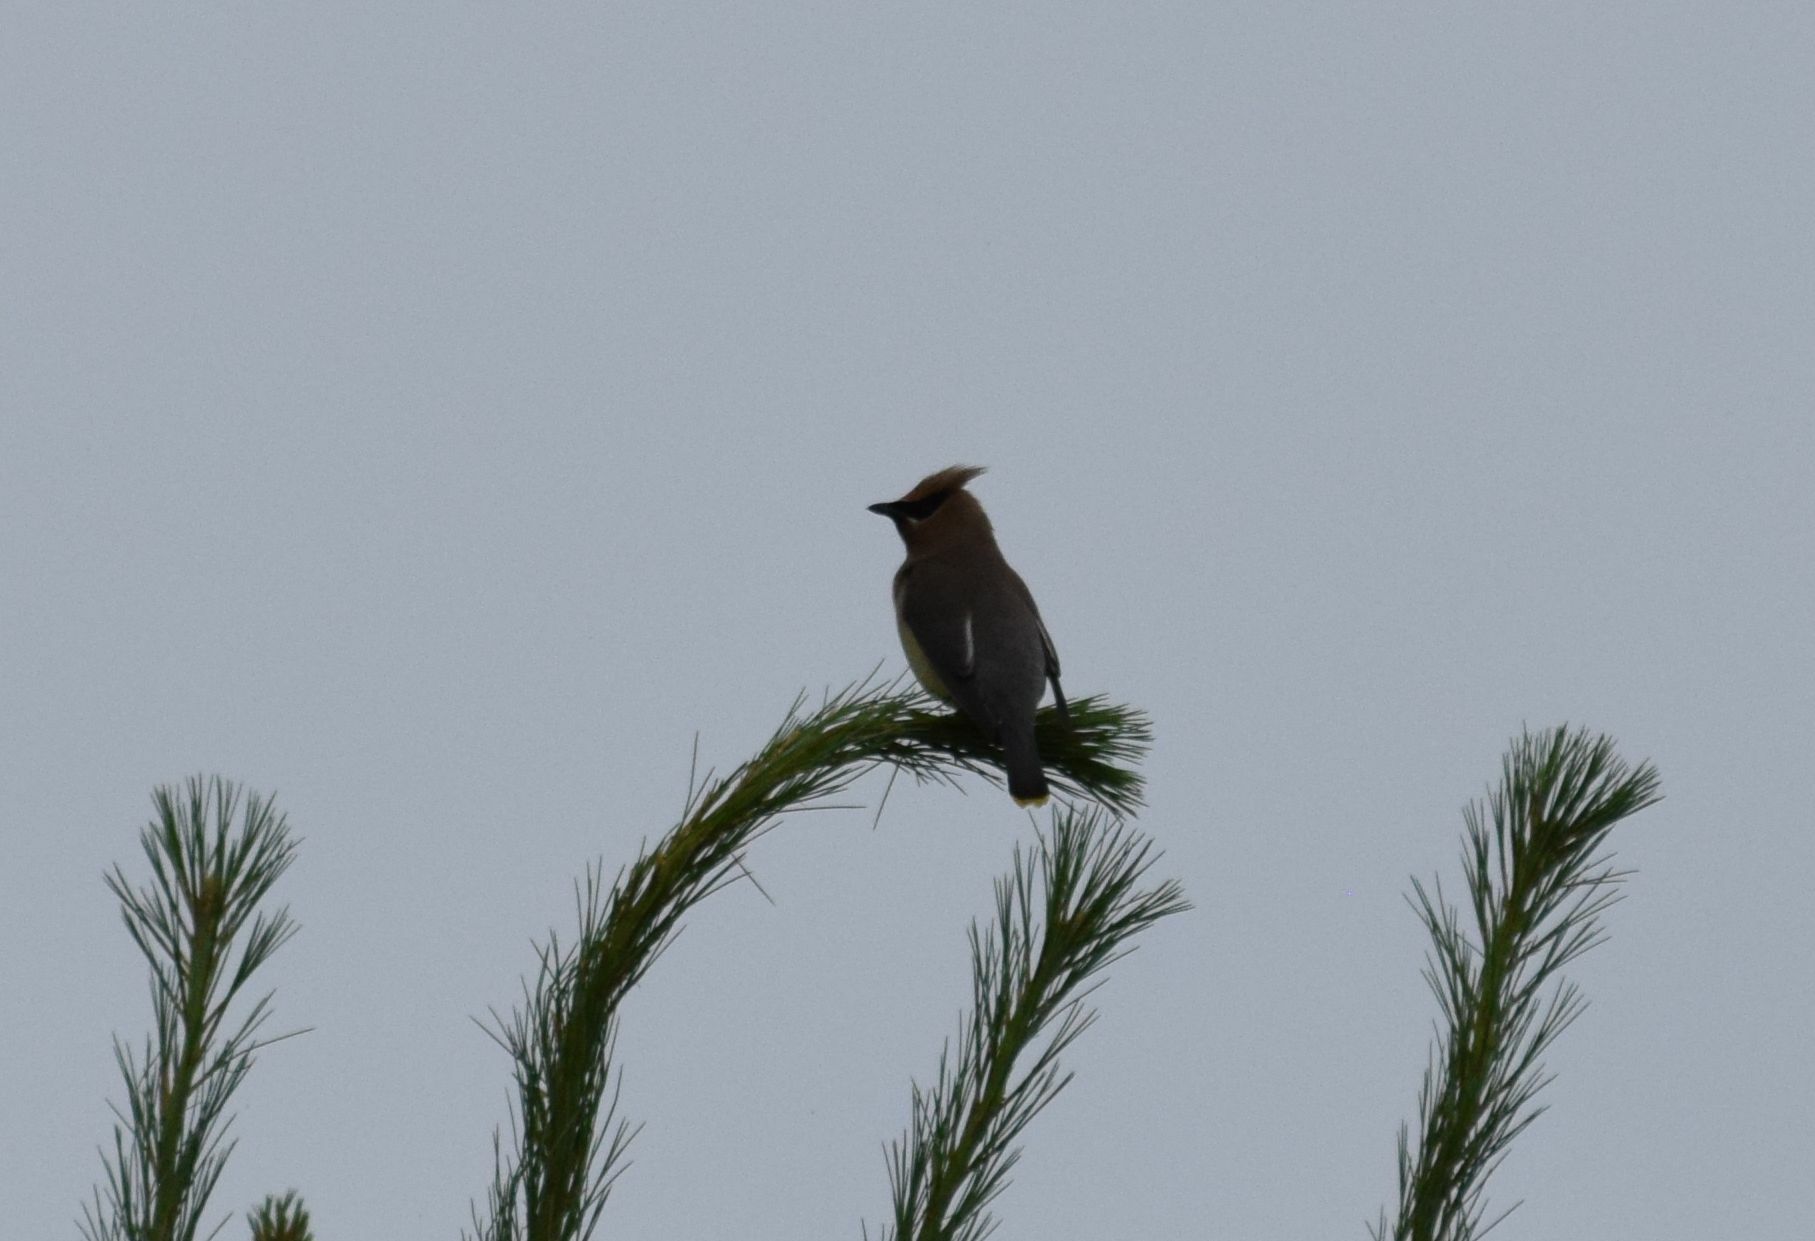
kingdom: Animalia
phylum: Chordata
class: Aves
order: Passeriformes
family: Bombycillidae
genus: Bombycilla
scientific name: Bombycilla cedrorum
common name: Cedar waxwing
